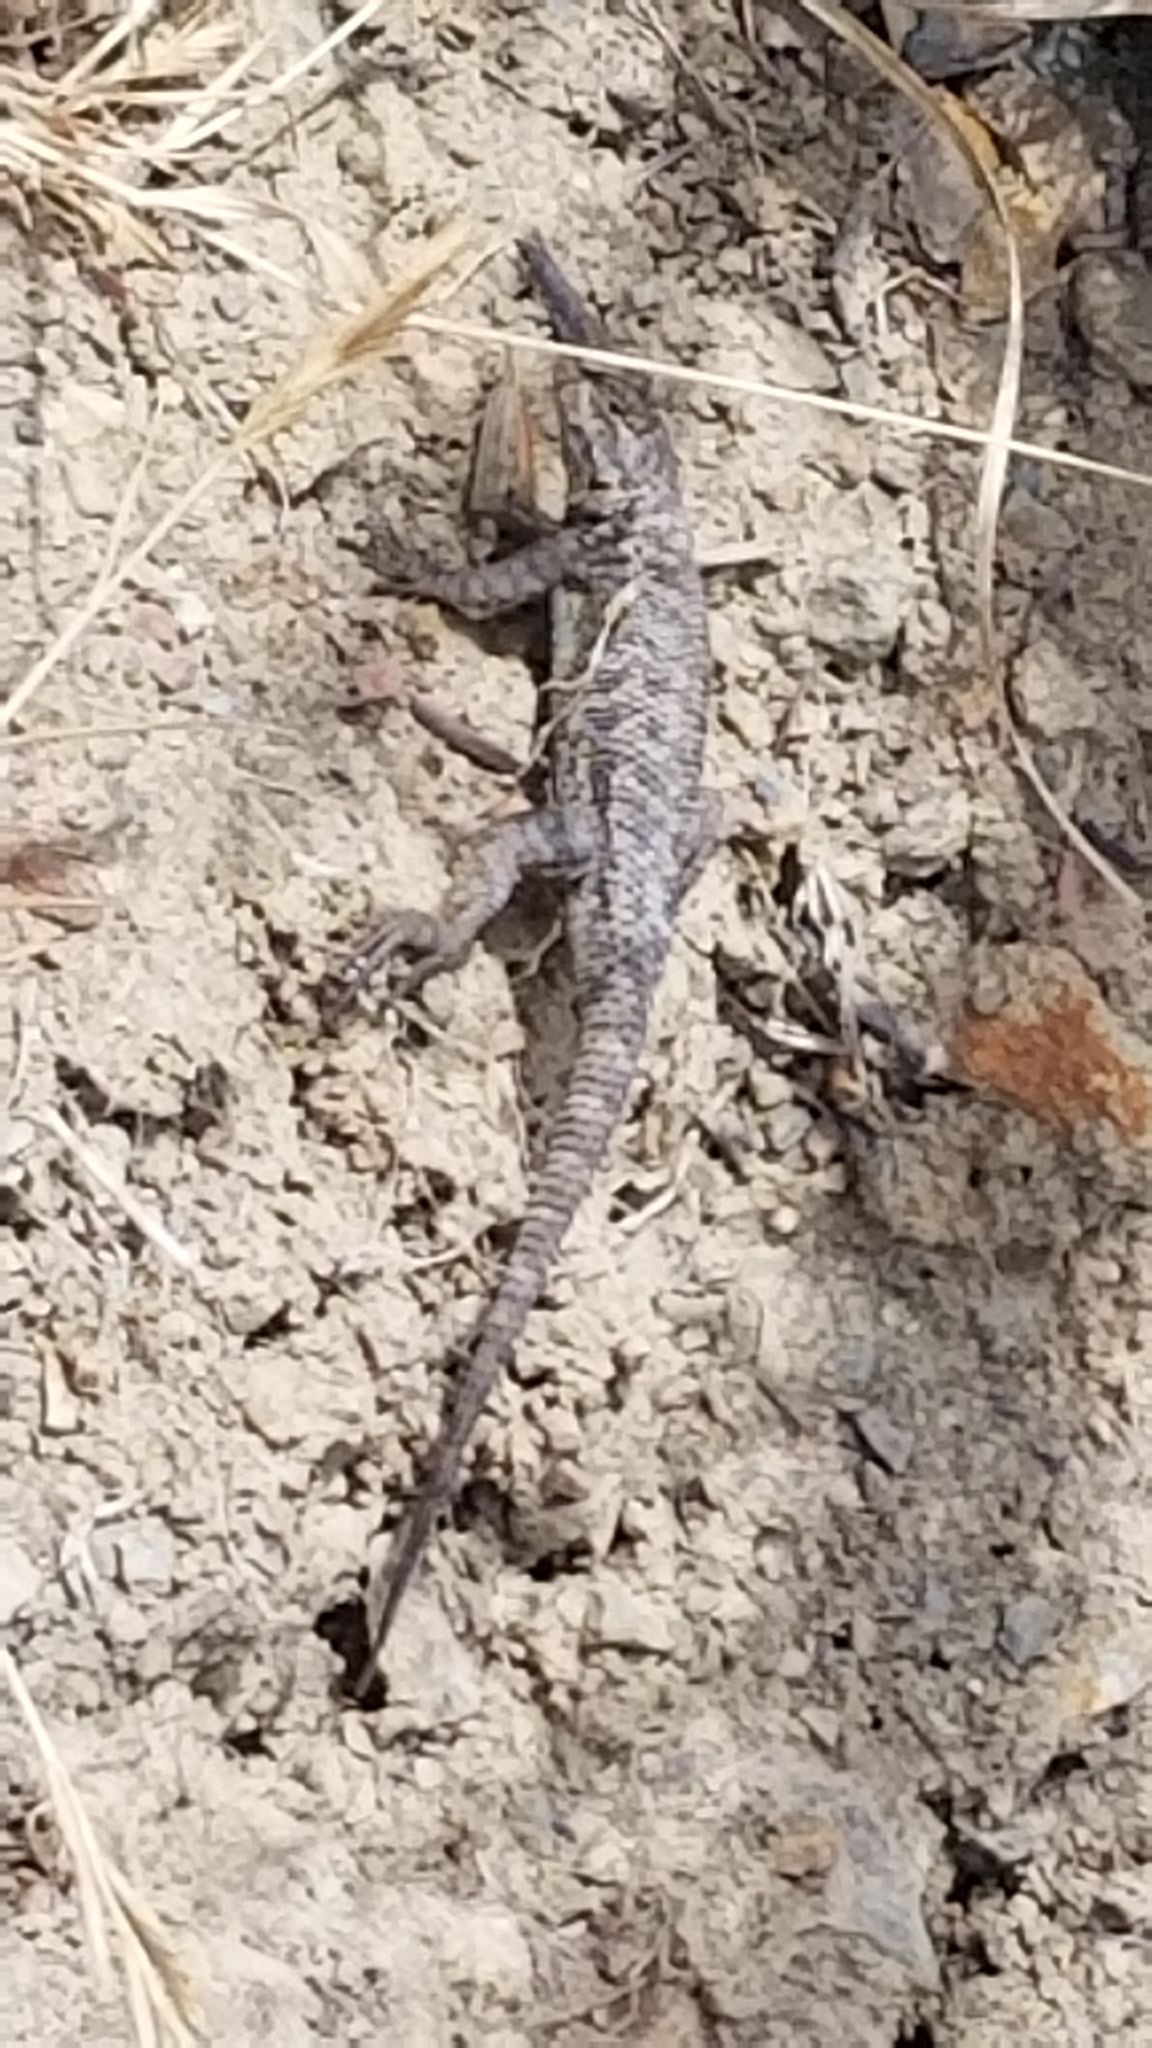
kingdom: Animalia
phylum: Chordata
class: Squamata
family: Phrynosomatidae
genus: Sceloporus
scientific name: Sceloporus occidentalis
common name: Western fence lizard
